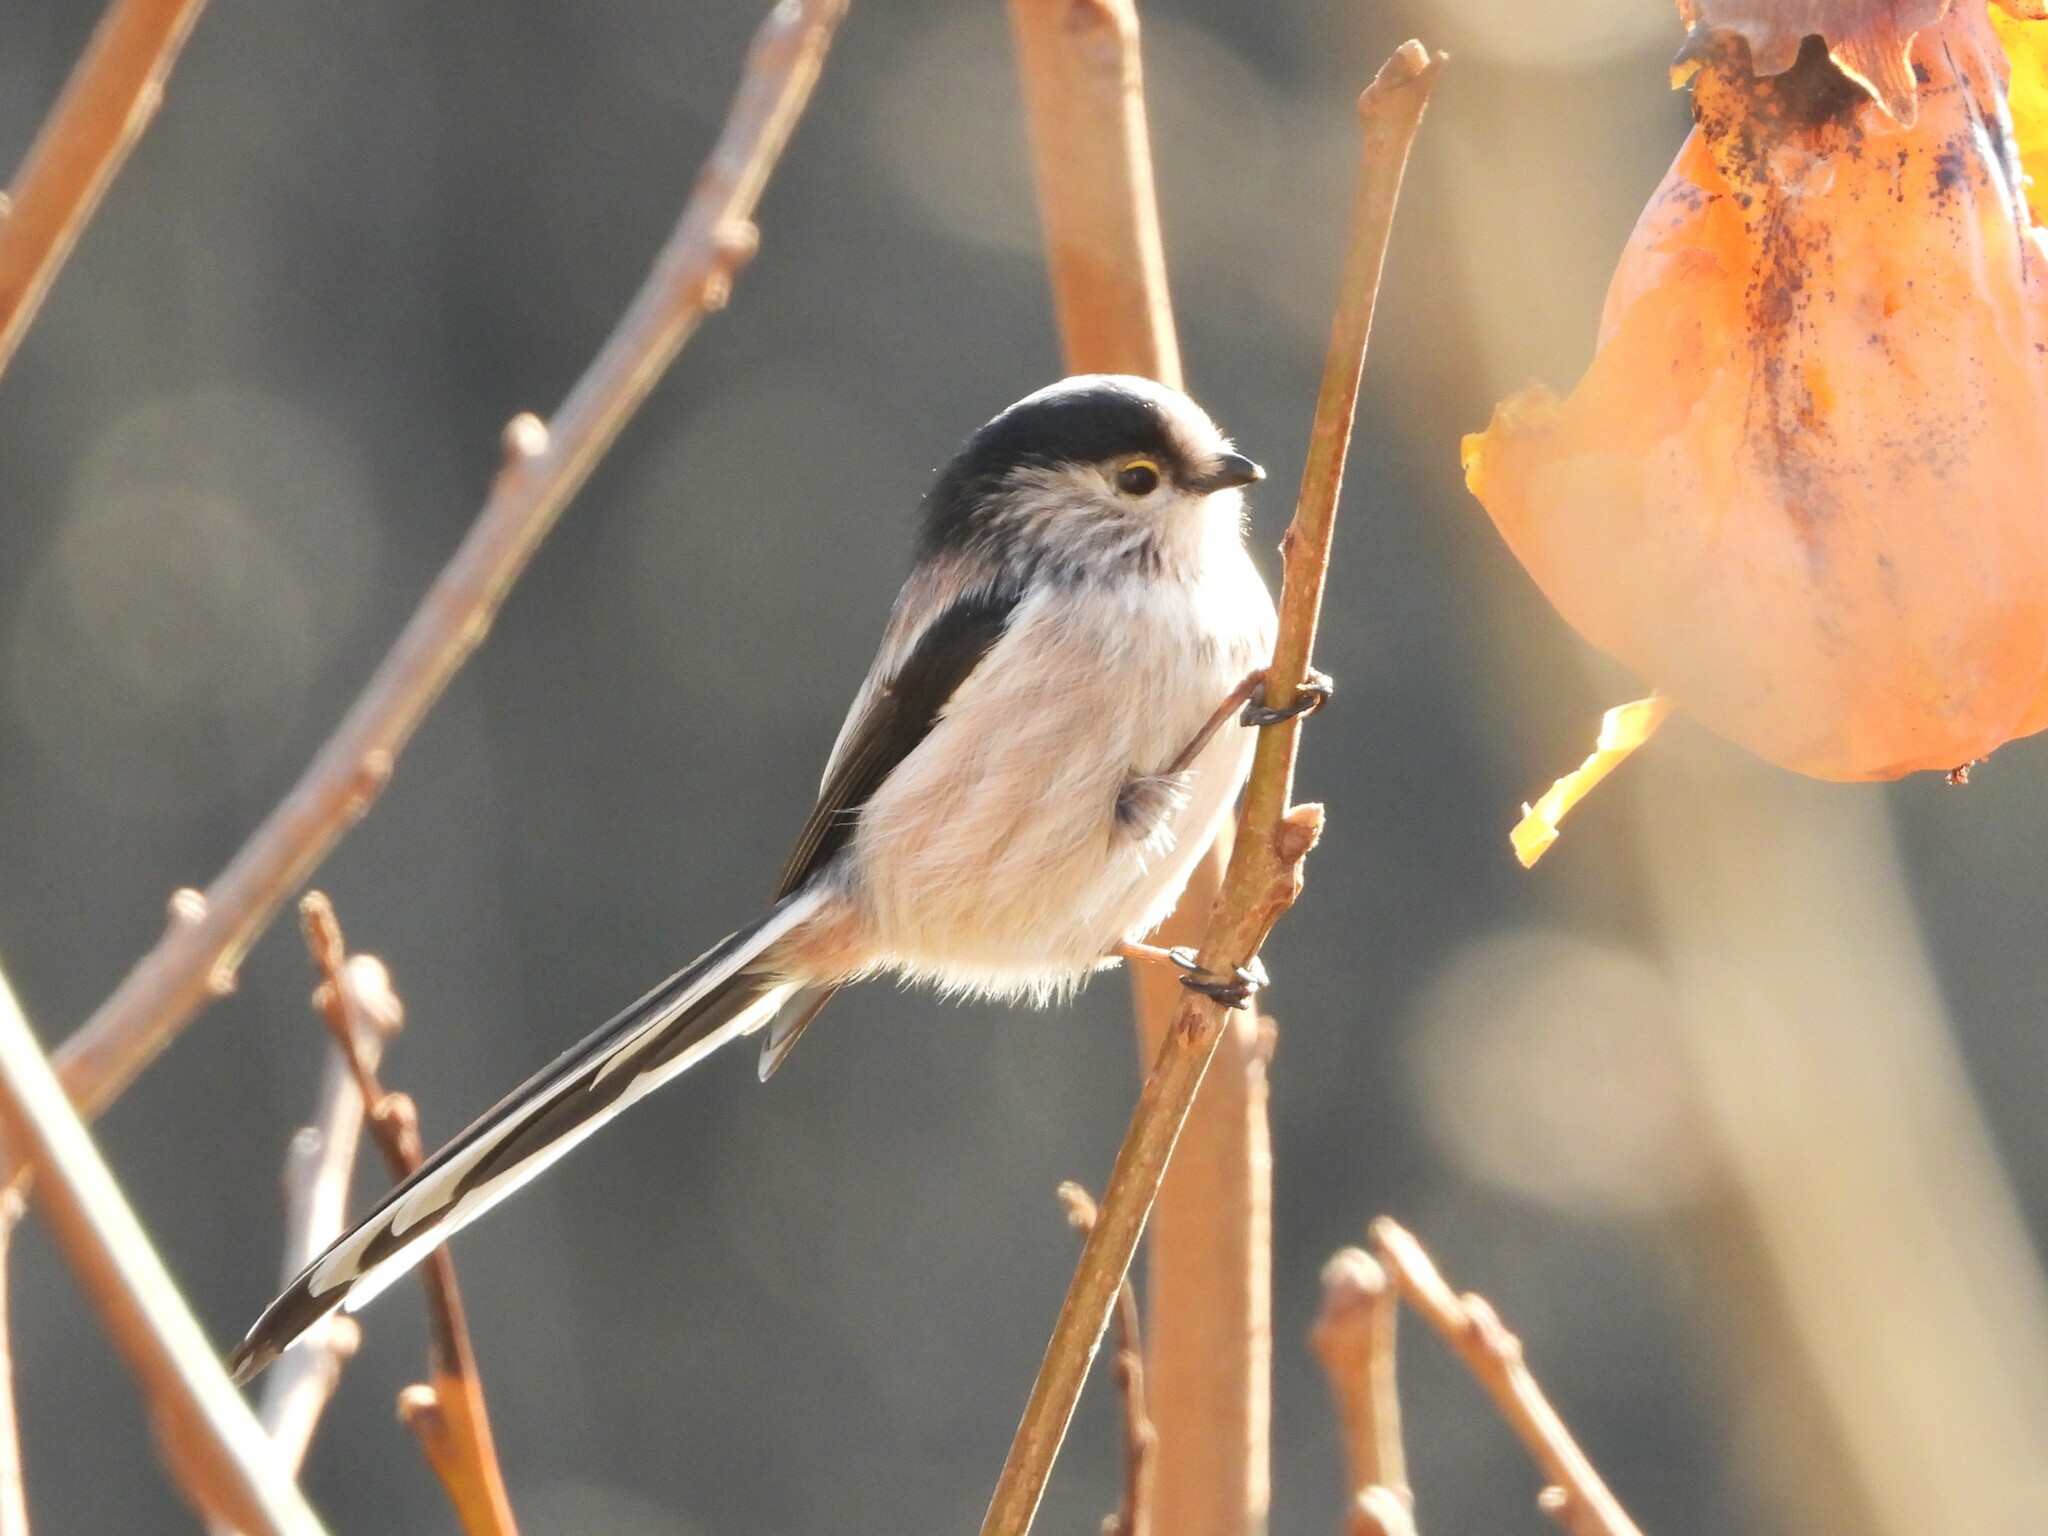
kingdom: Animalia
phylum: Chordata
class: Aves
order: Passeriformes
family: Aegithalidae
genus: Aegithalos
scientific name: Aegithalos caudatus
